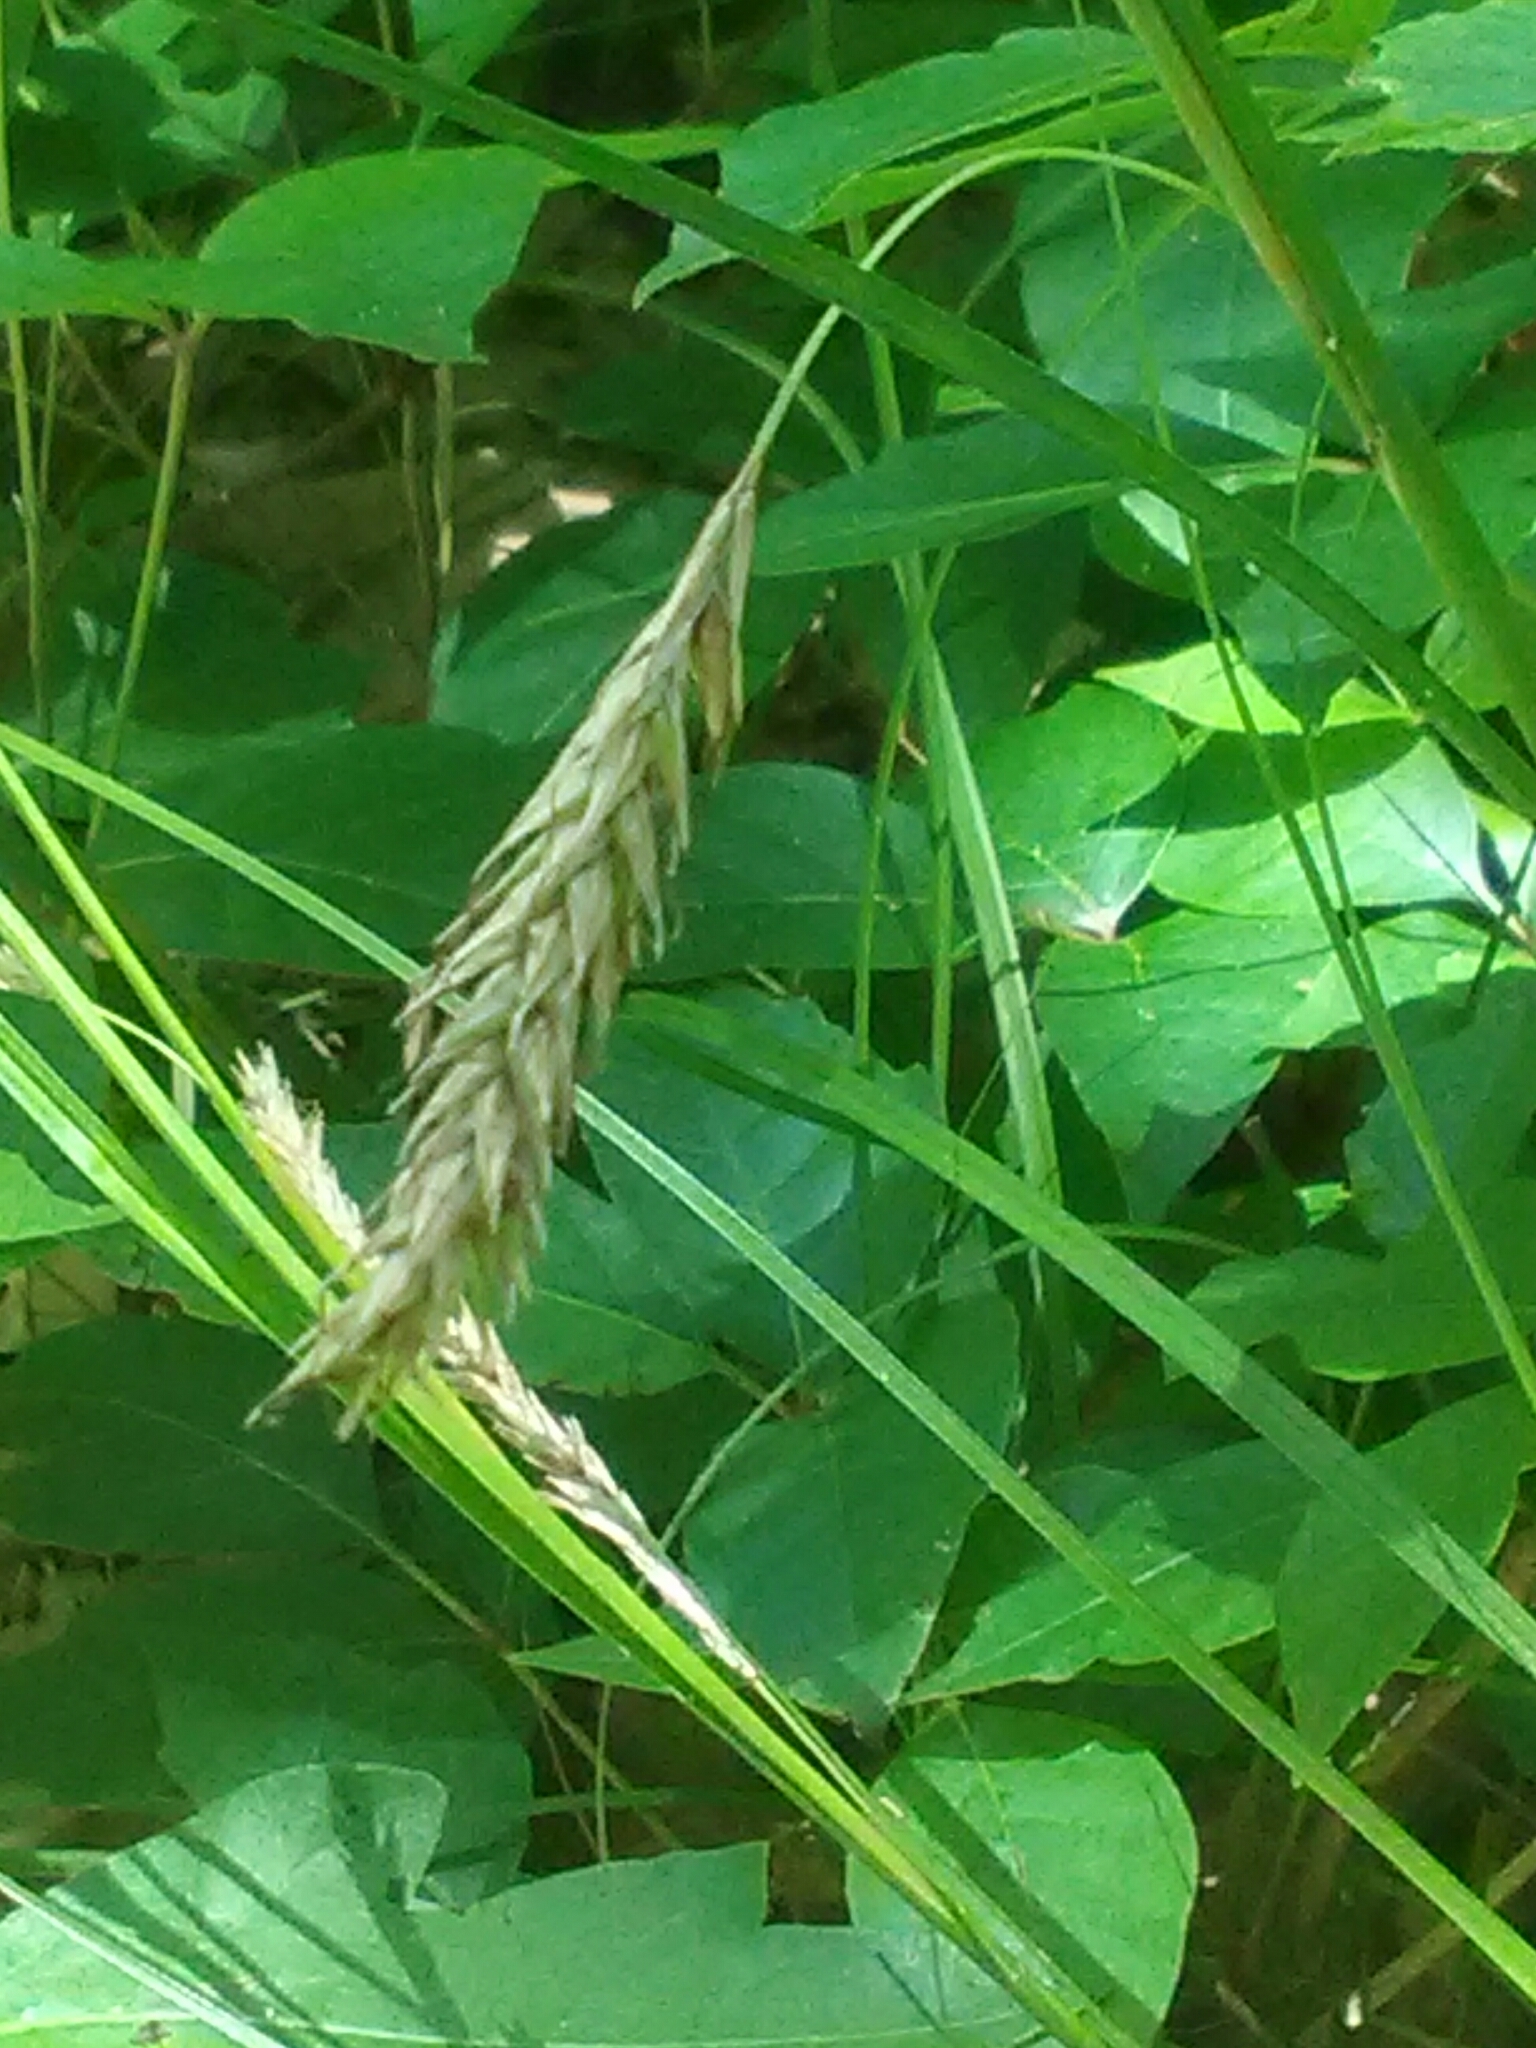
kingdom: Plantae
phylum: Tracheophyta
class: Liliopsida
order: Poales
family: Cyperaceae
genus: Carex
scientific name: Carex cherokeensis
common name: Cherokee sedge
